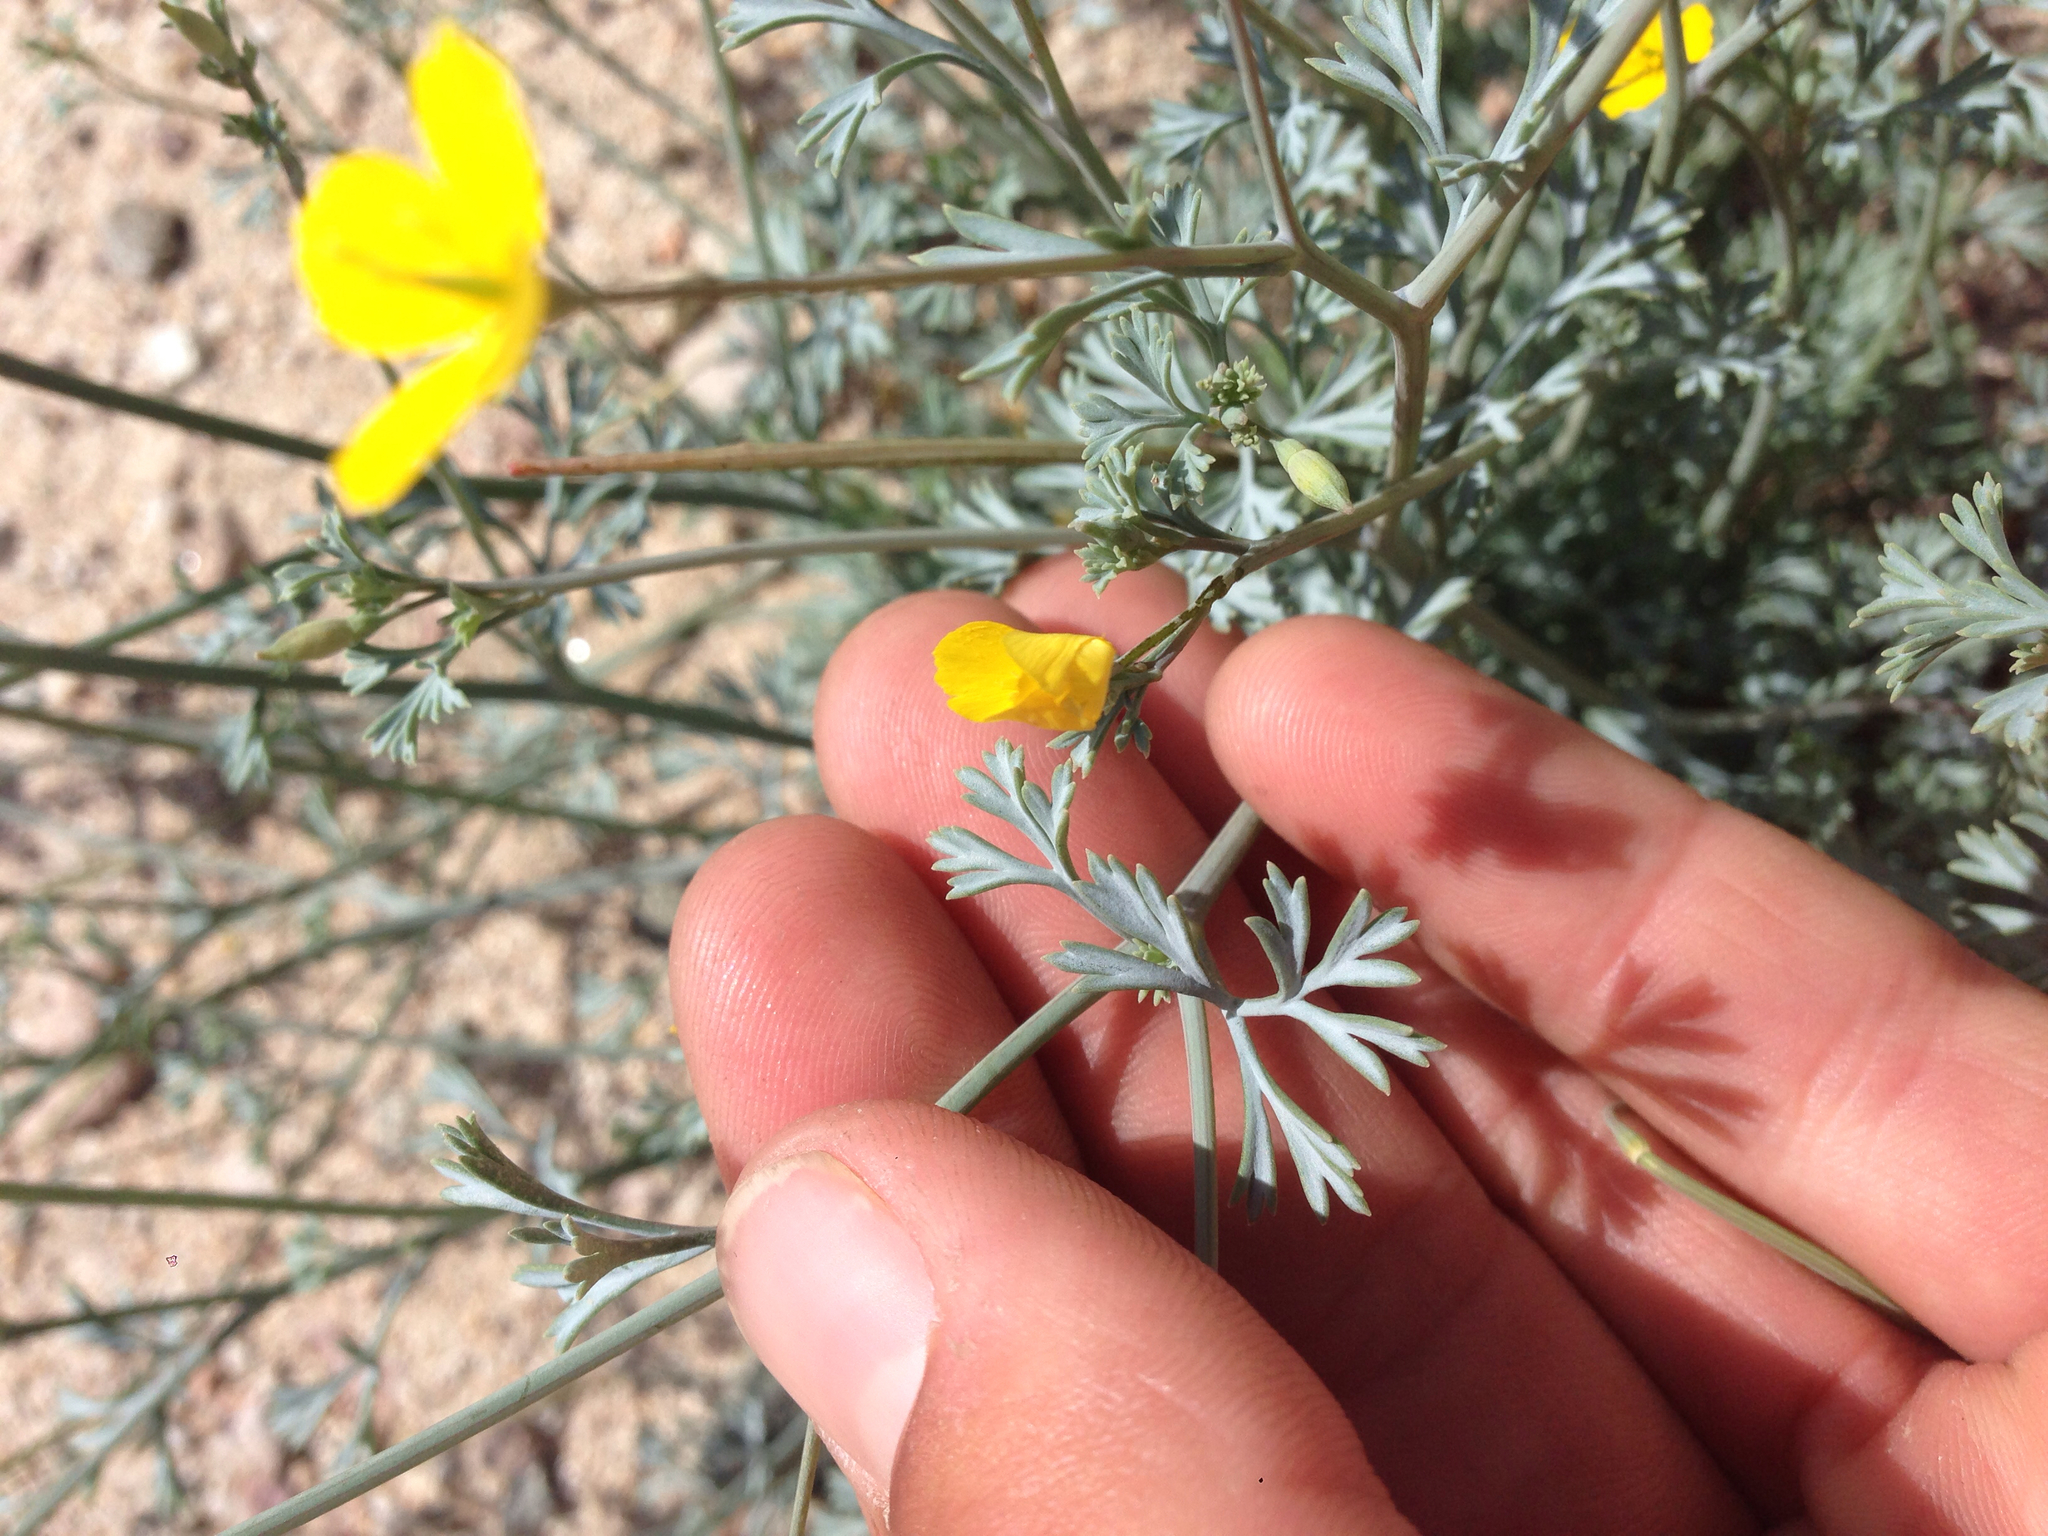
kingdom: Plantae
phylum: Tracheophyta
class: Magnoliopsida
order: Ranunculales
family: Papaveraceae
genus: Eschscholzia
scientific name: Eschscholzia minutiflora
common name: Small-flower california-poppy
